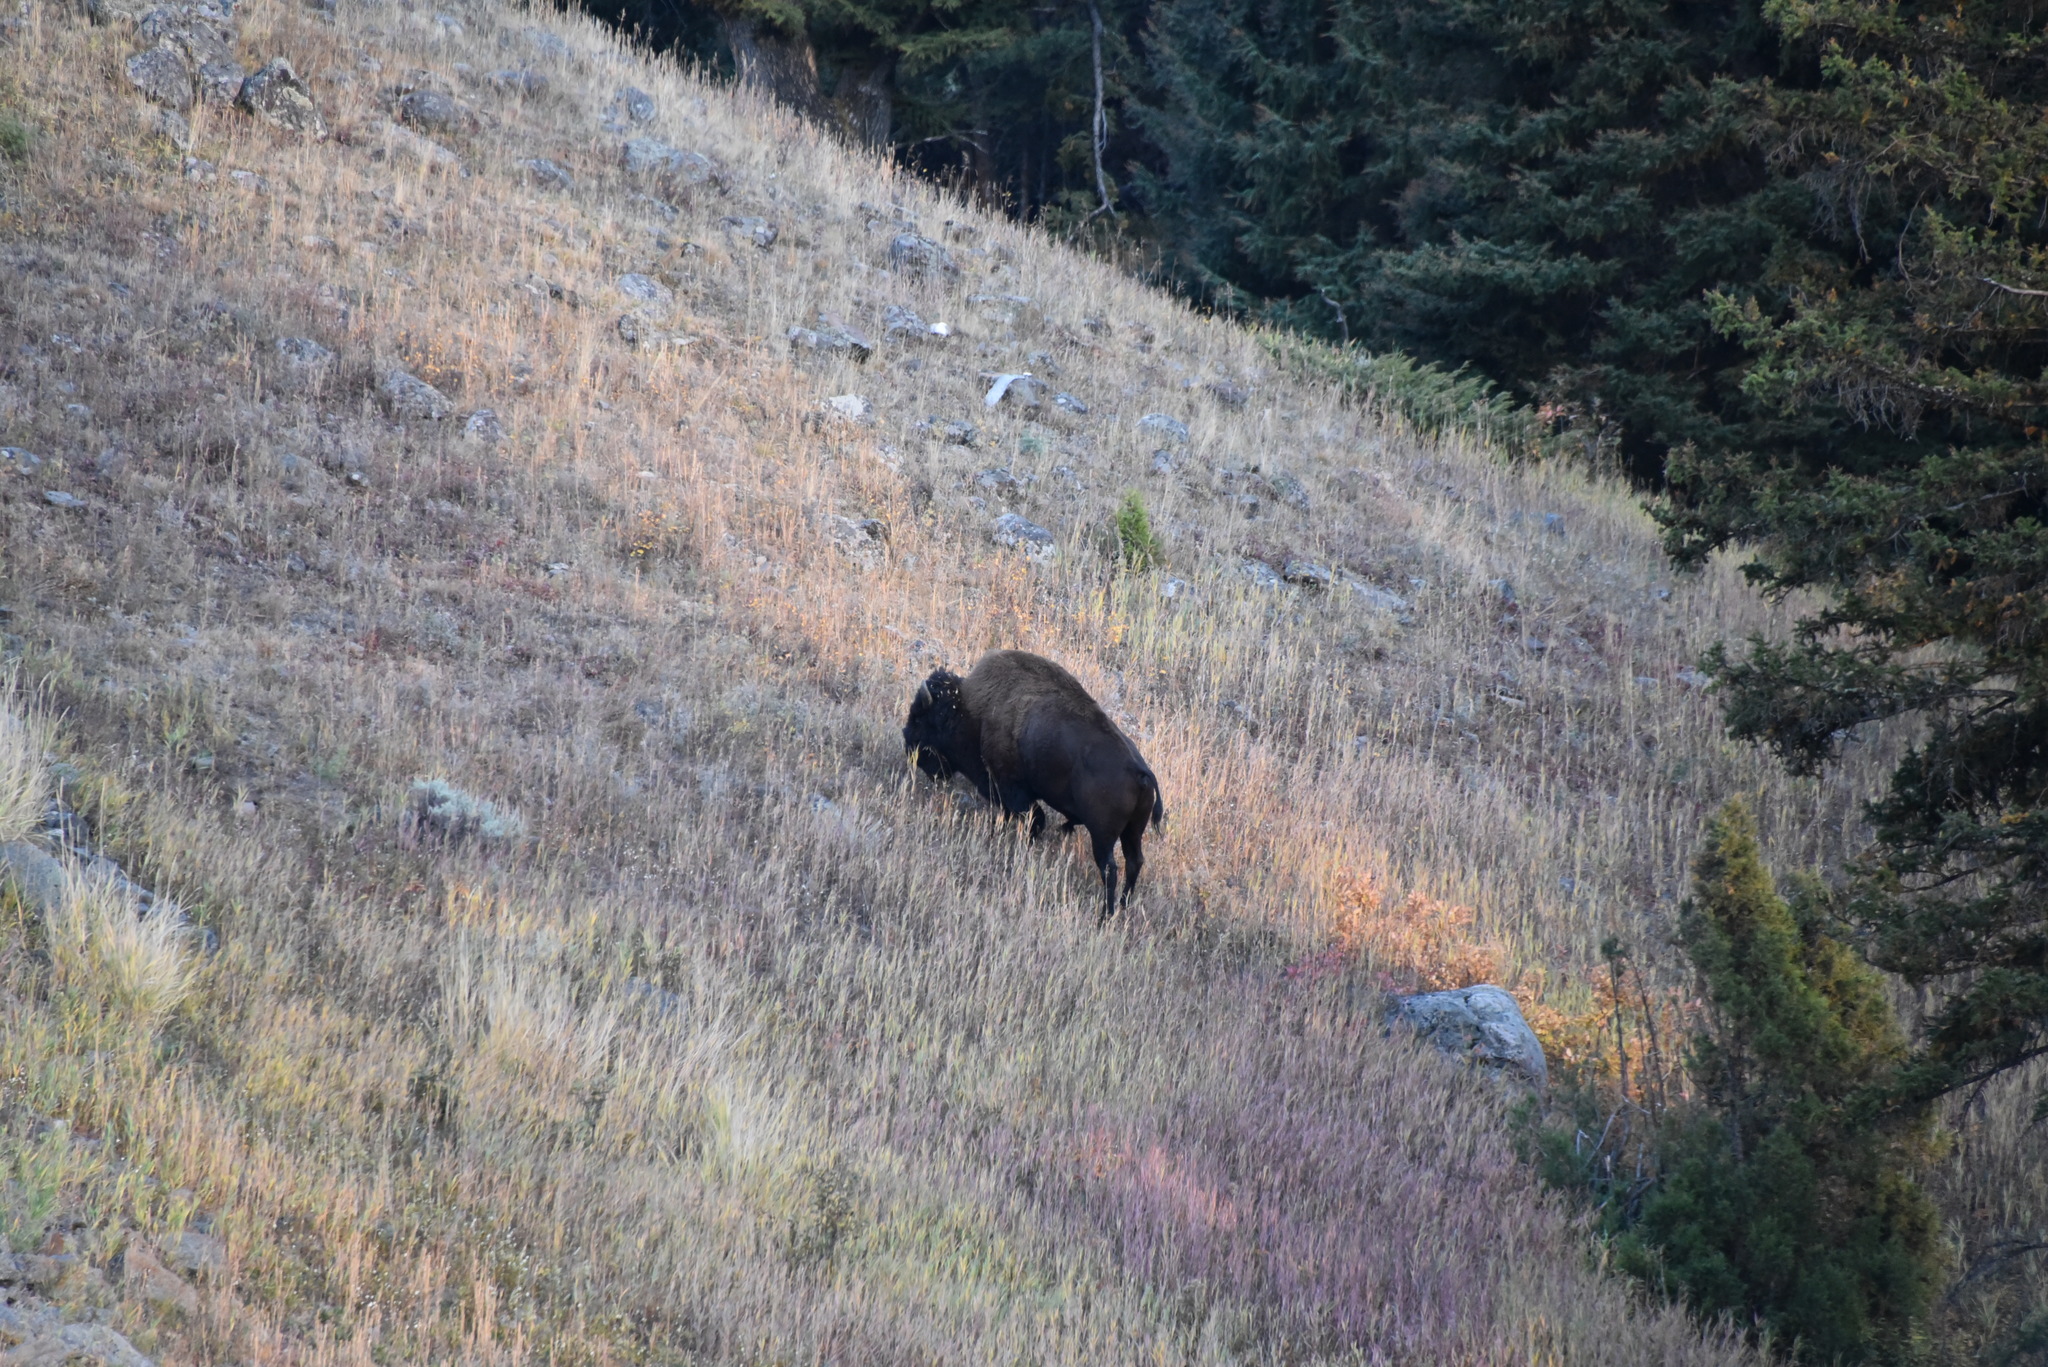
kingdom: Animalia
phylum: Chordata
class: Mammalia
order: Artiodactyla
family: Bovidae
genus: Bison
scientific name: Bison bison
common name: American bison
